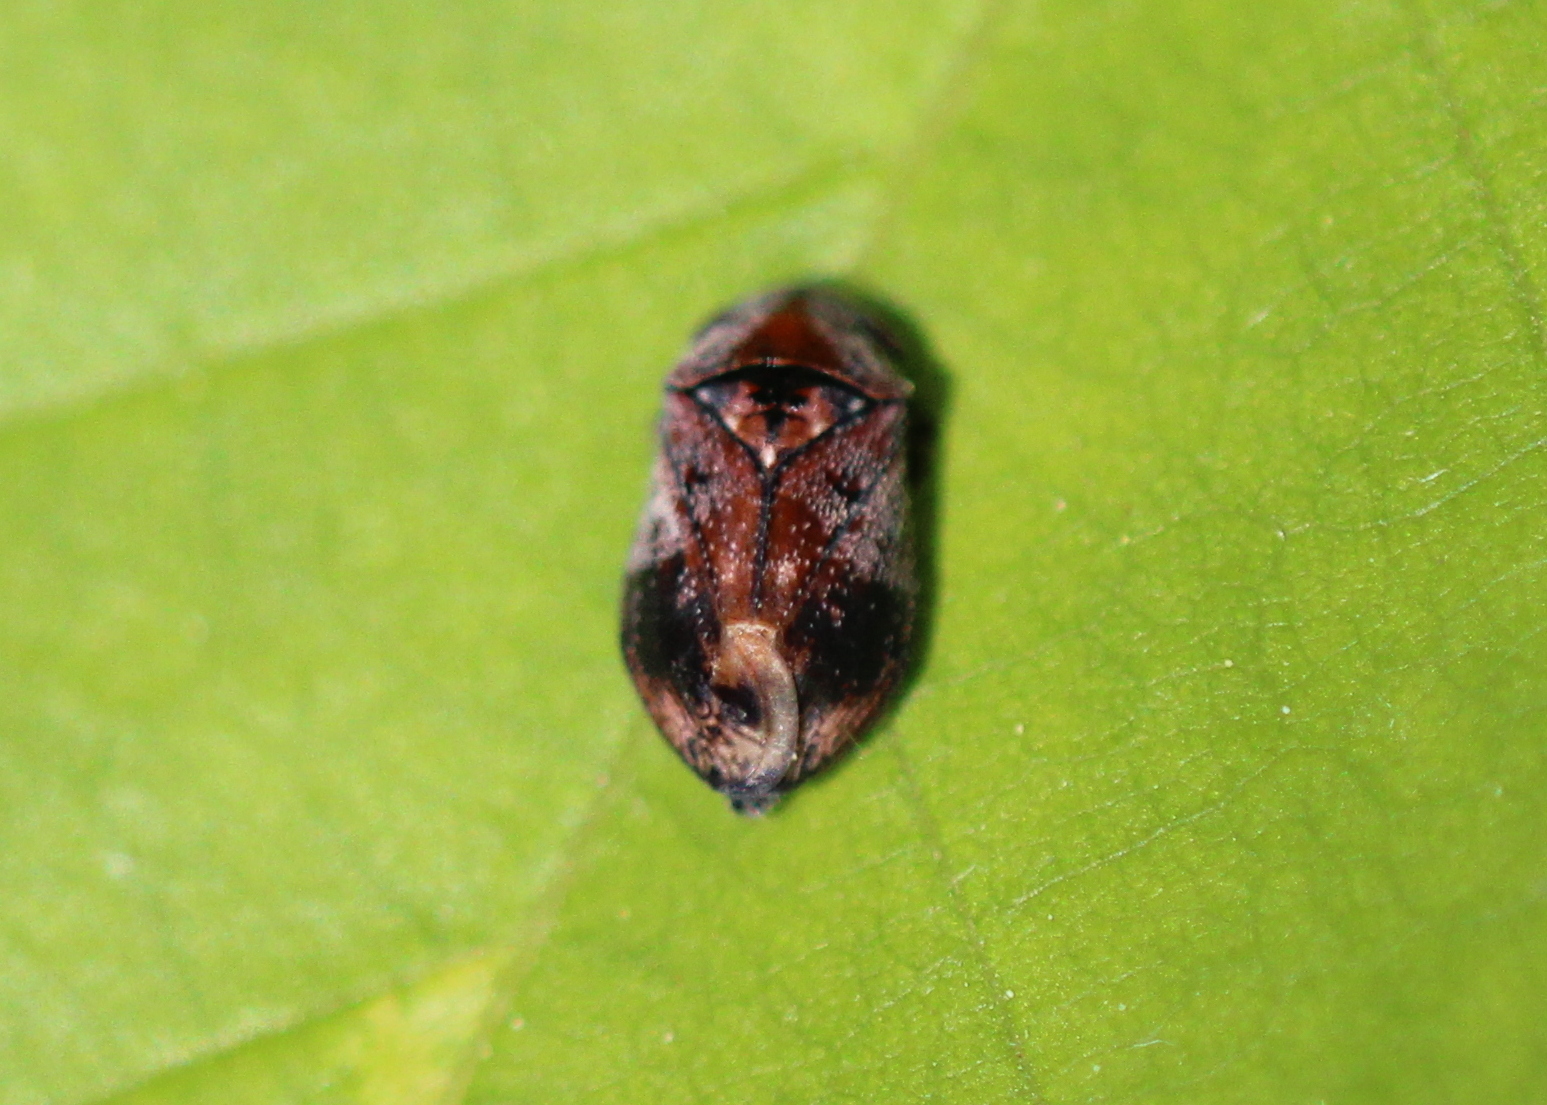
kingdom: Animalia
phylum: Arthropoda
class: Insecta
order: Hemiptera
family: Cicadellidae
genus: Penthimia
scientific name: Penthimia americana
